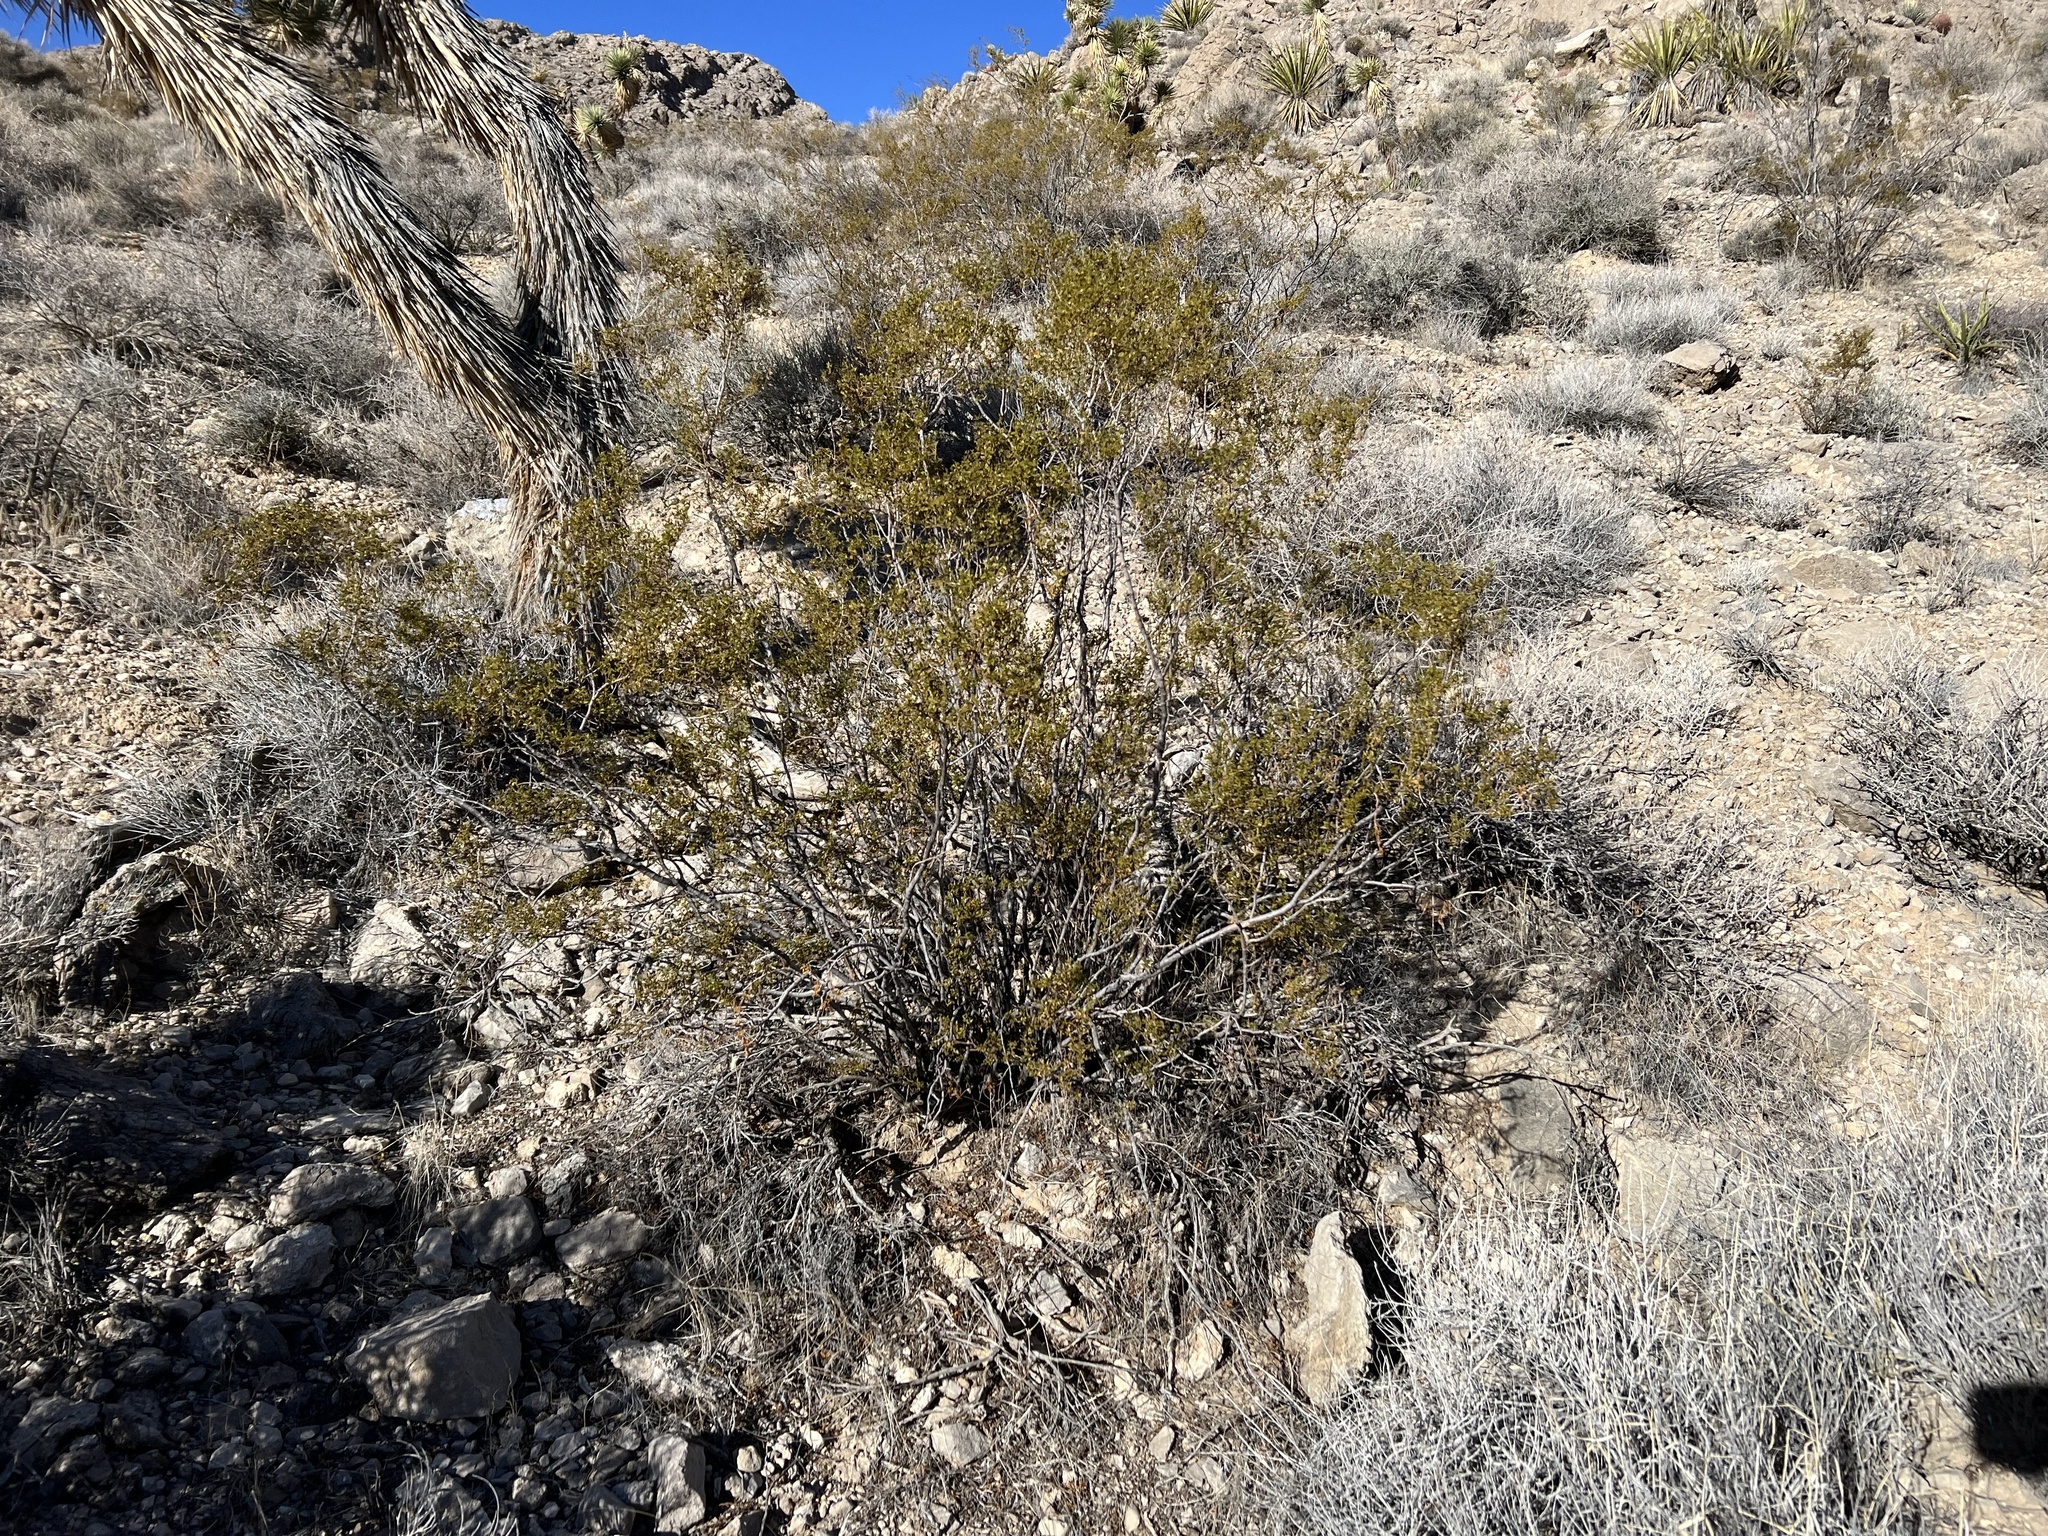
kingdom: Plantae
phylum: Tracheophyta
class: Magnoliopsida
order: Zygophyllales
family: Zygophyllaceae
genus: Larrea
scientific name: Larrea tridentata
